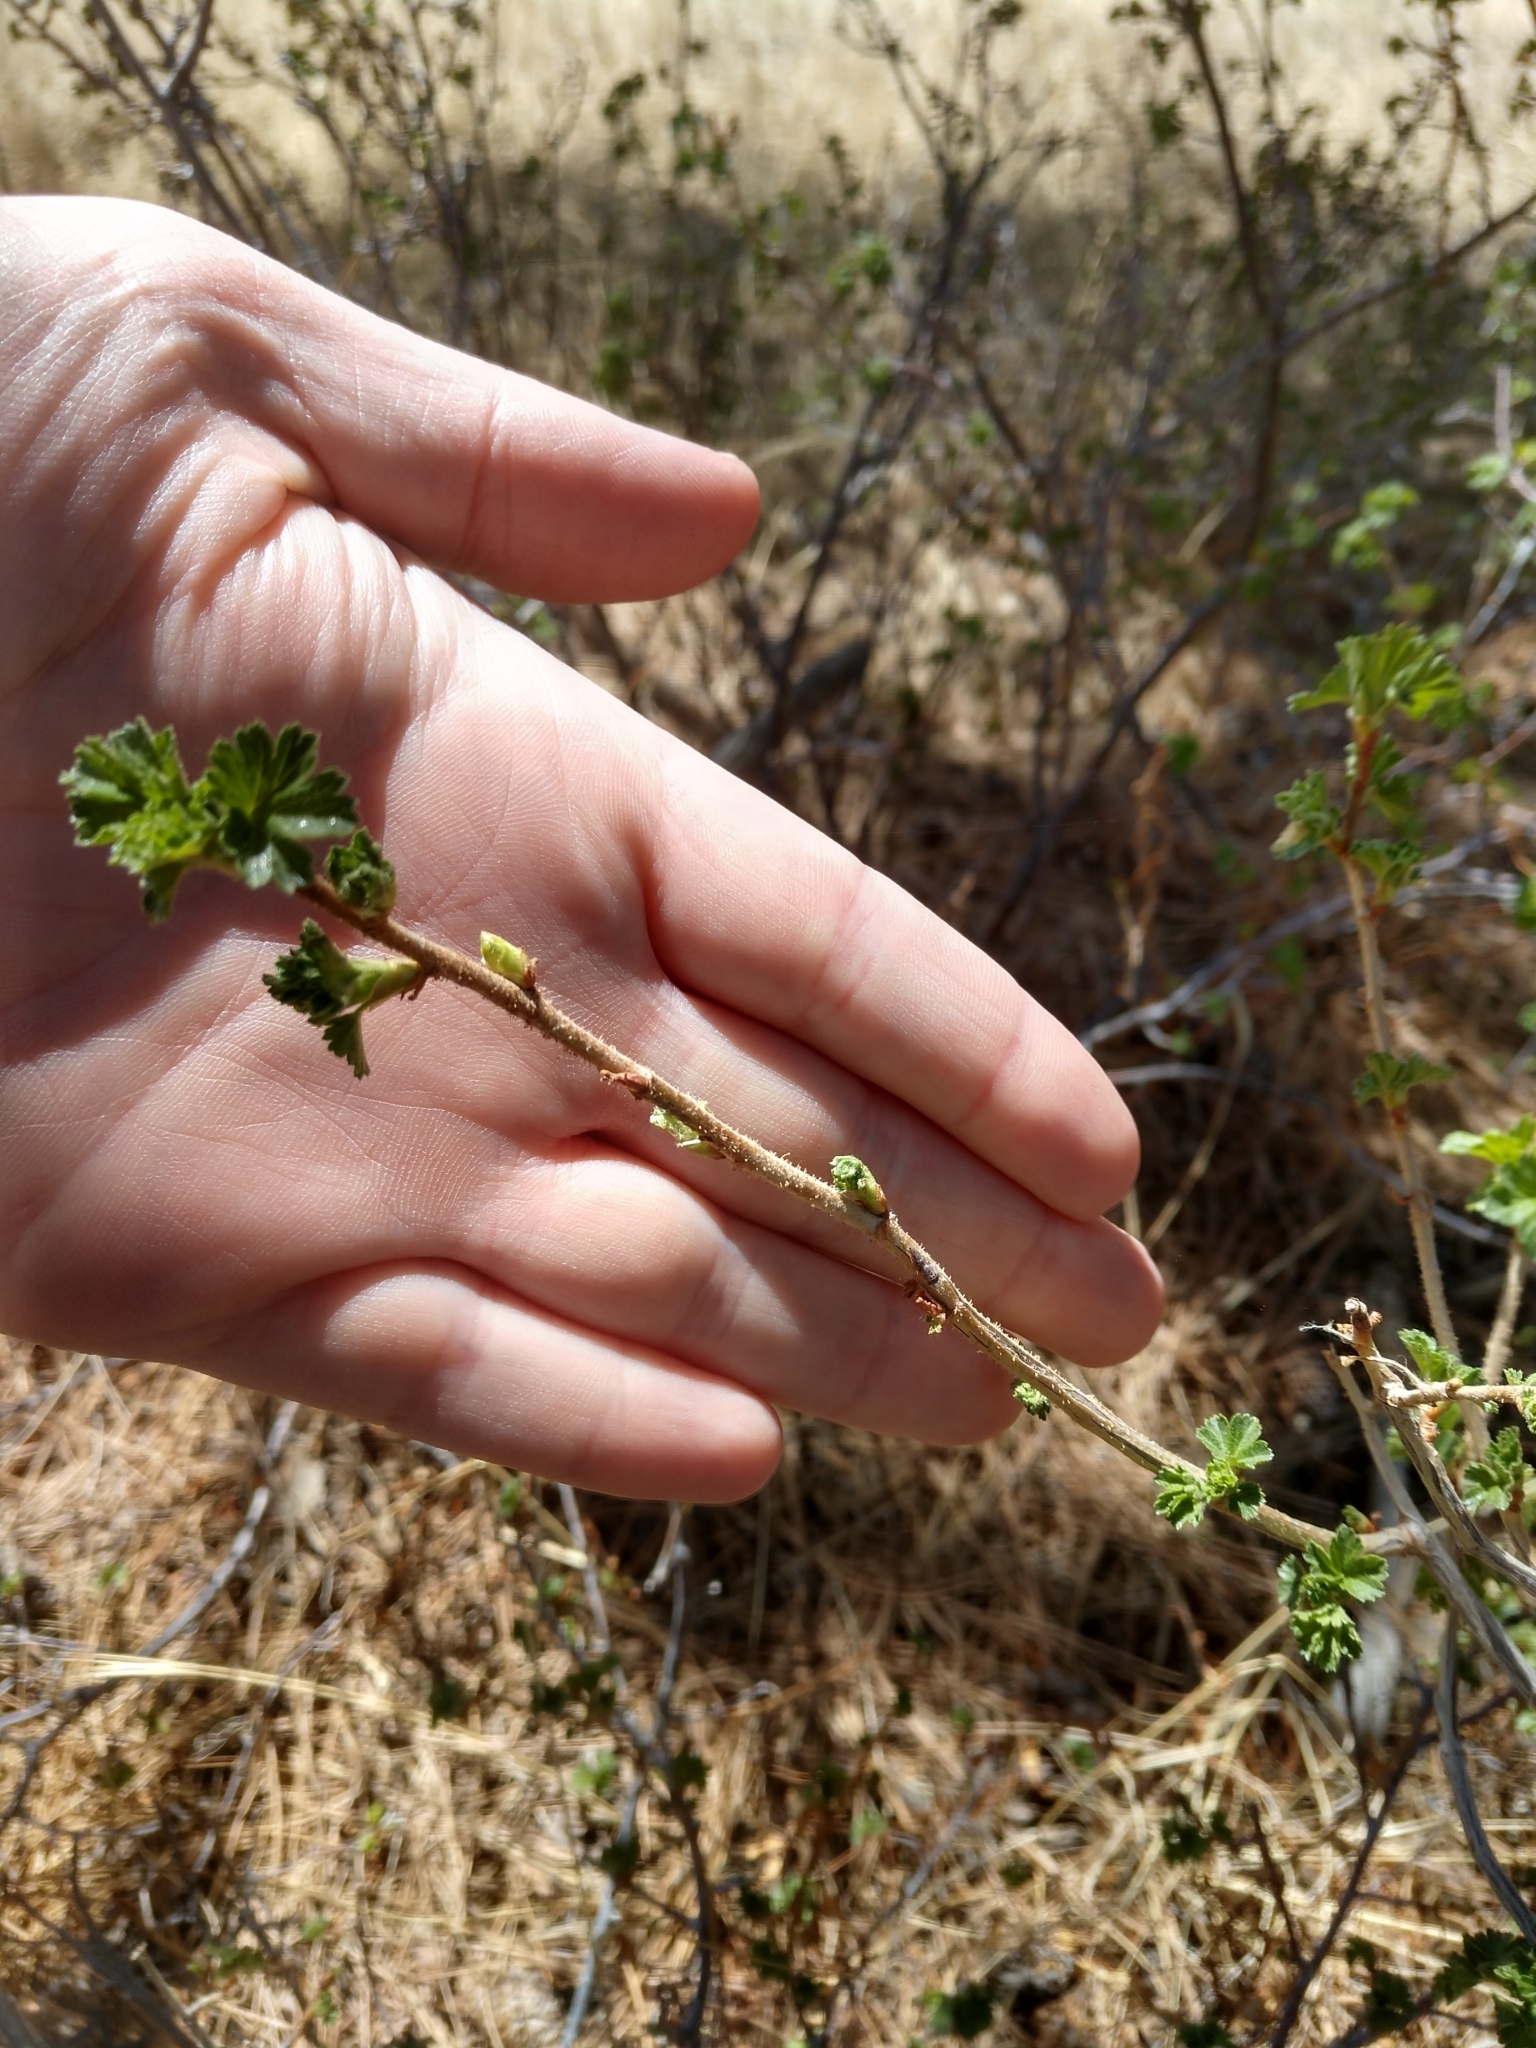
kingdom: Plantae
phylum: Tracheophyta
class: Magnoliopsida
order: Saxifragales
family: Grossulariaceae
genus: Ribes
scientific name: Ribes cereum
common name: Wax currant
